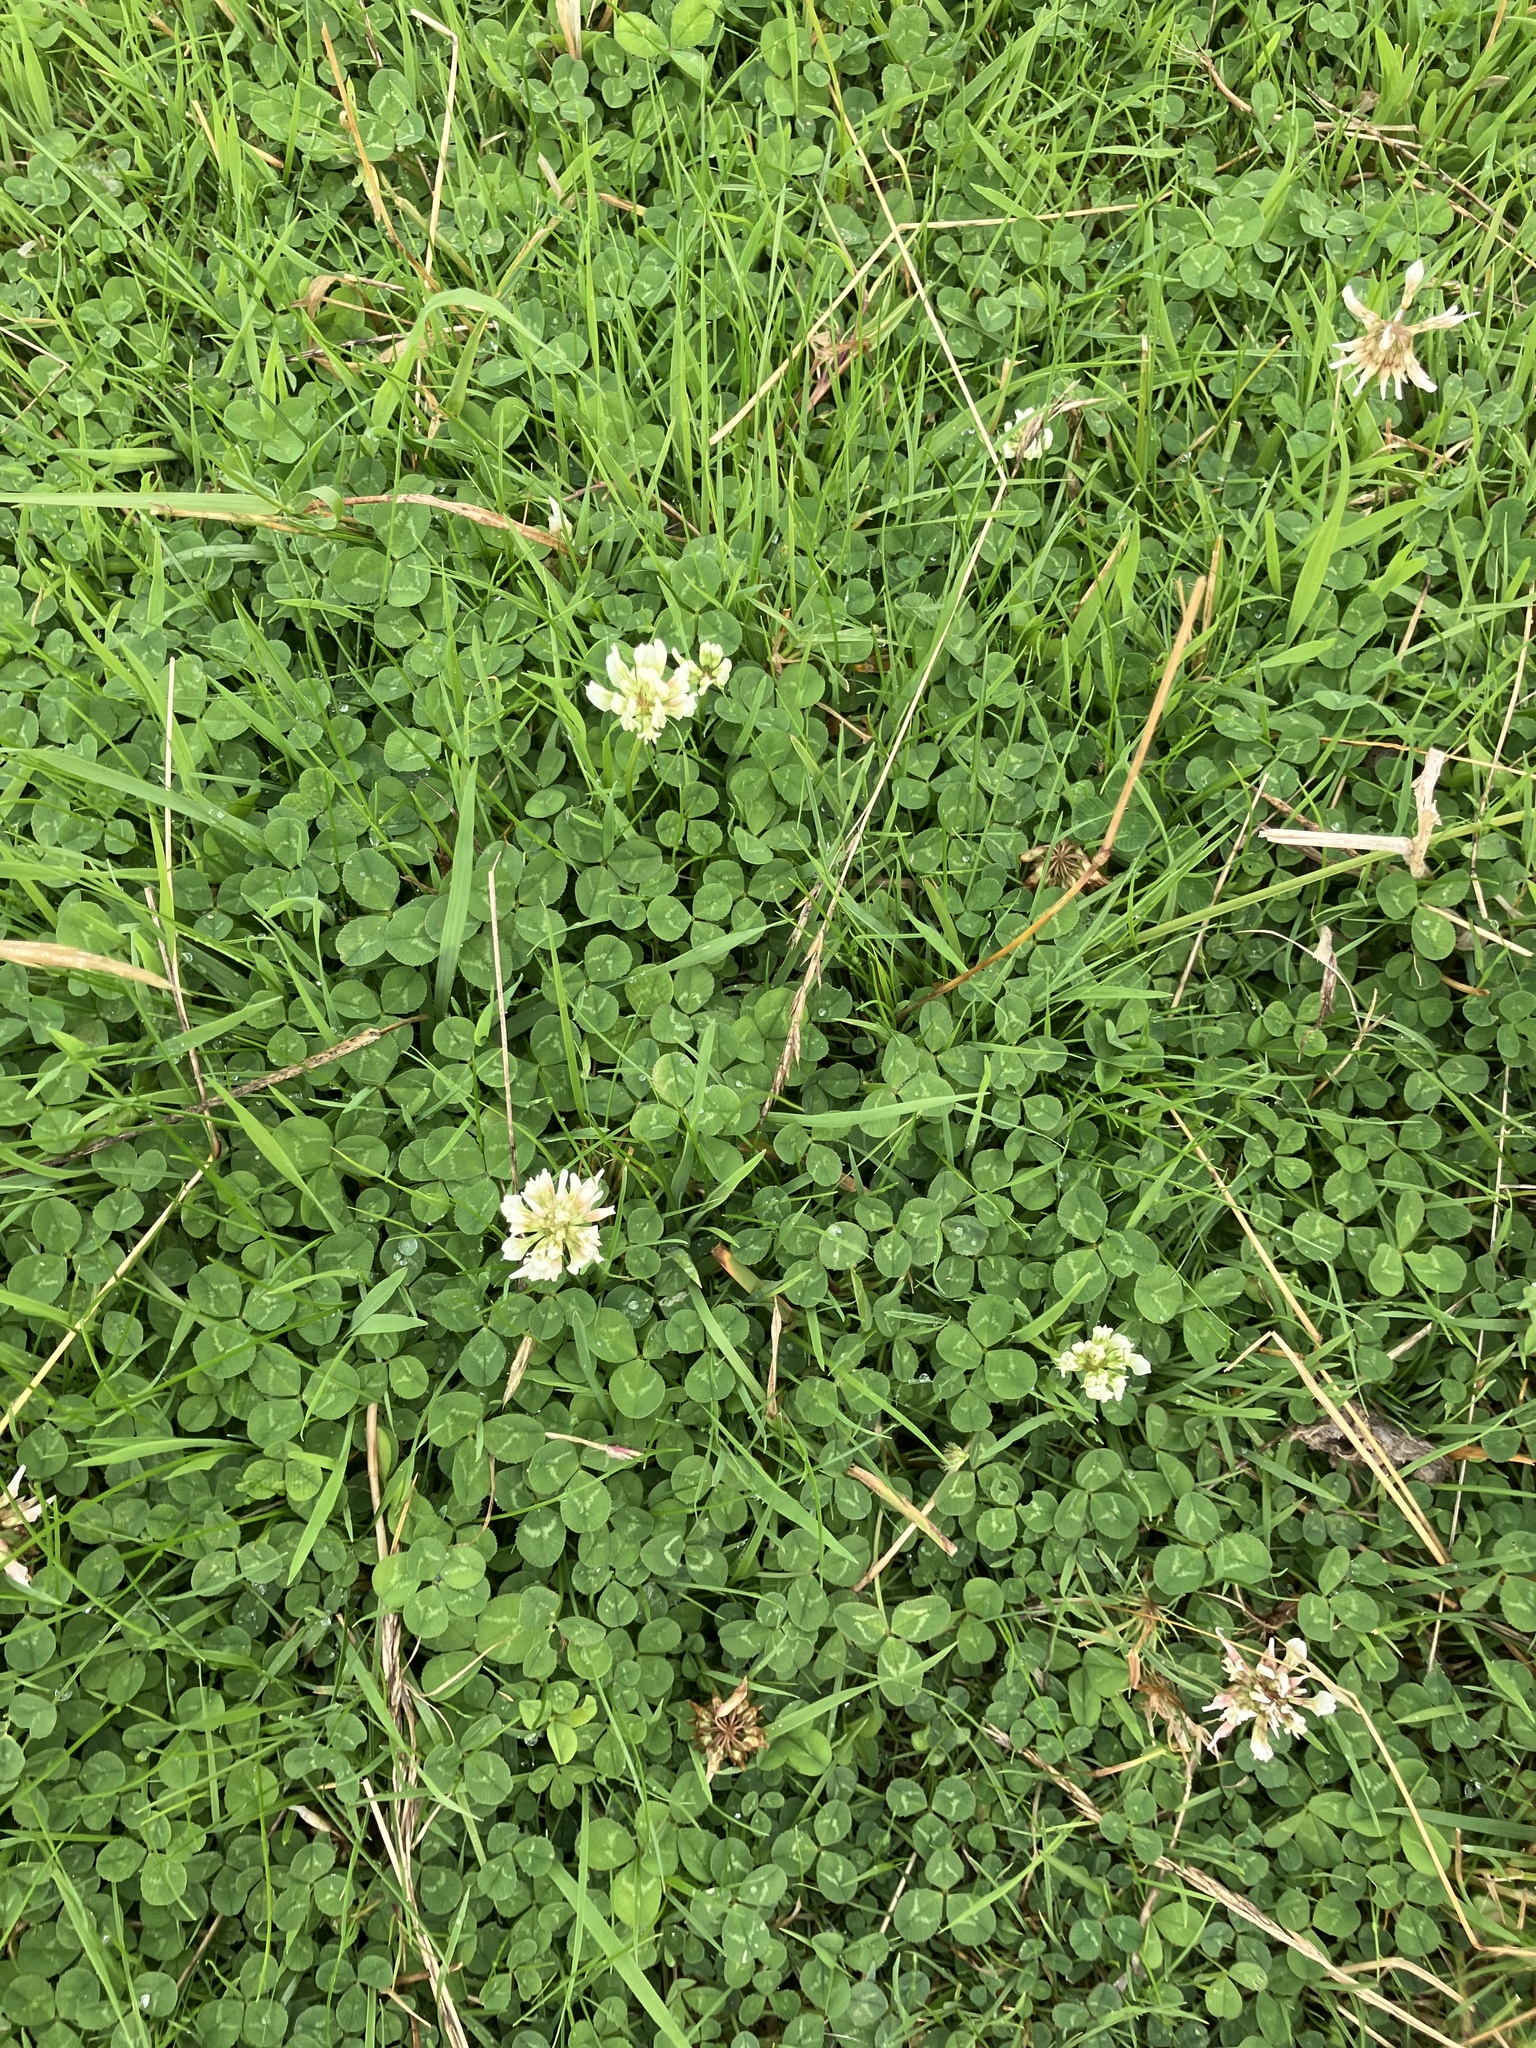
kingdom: Plantae
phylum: Tracheophyta
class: Magnoliopsida
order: Fabales
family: Fabaceae
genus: Trifolium
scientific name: Trifolium repens
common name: White clover
